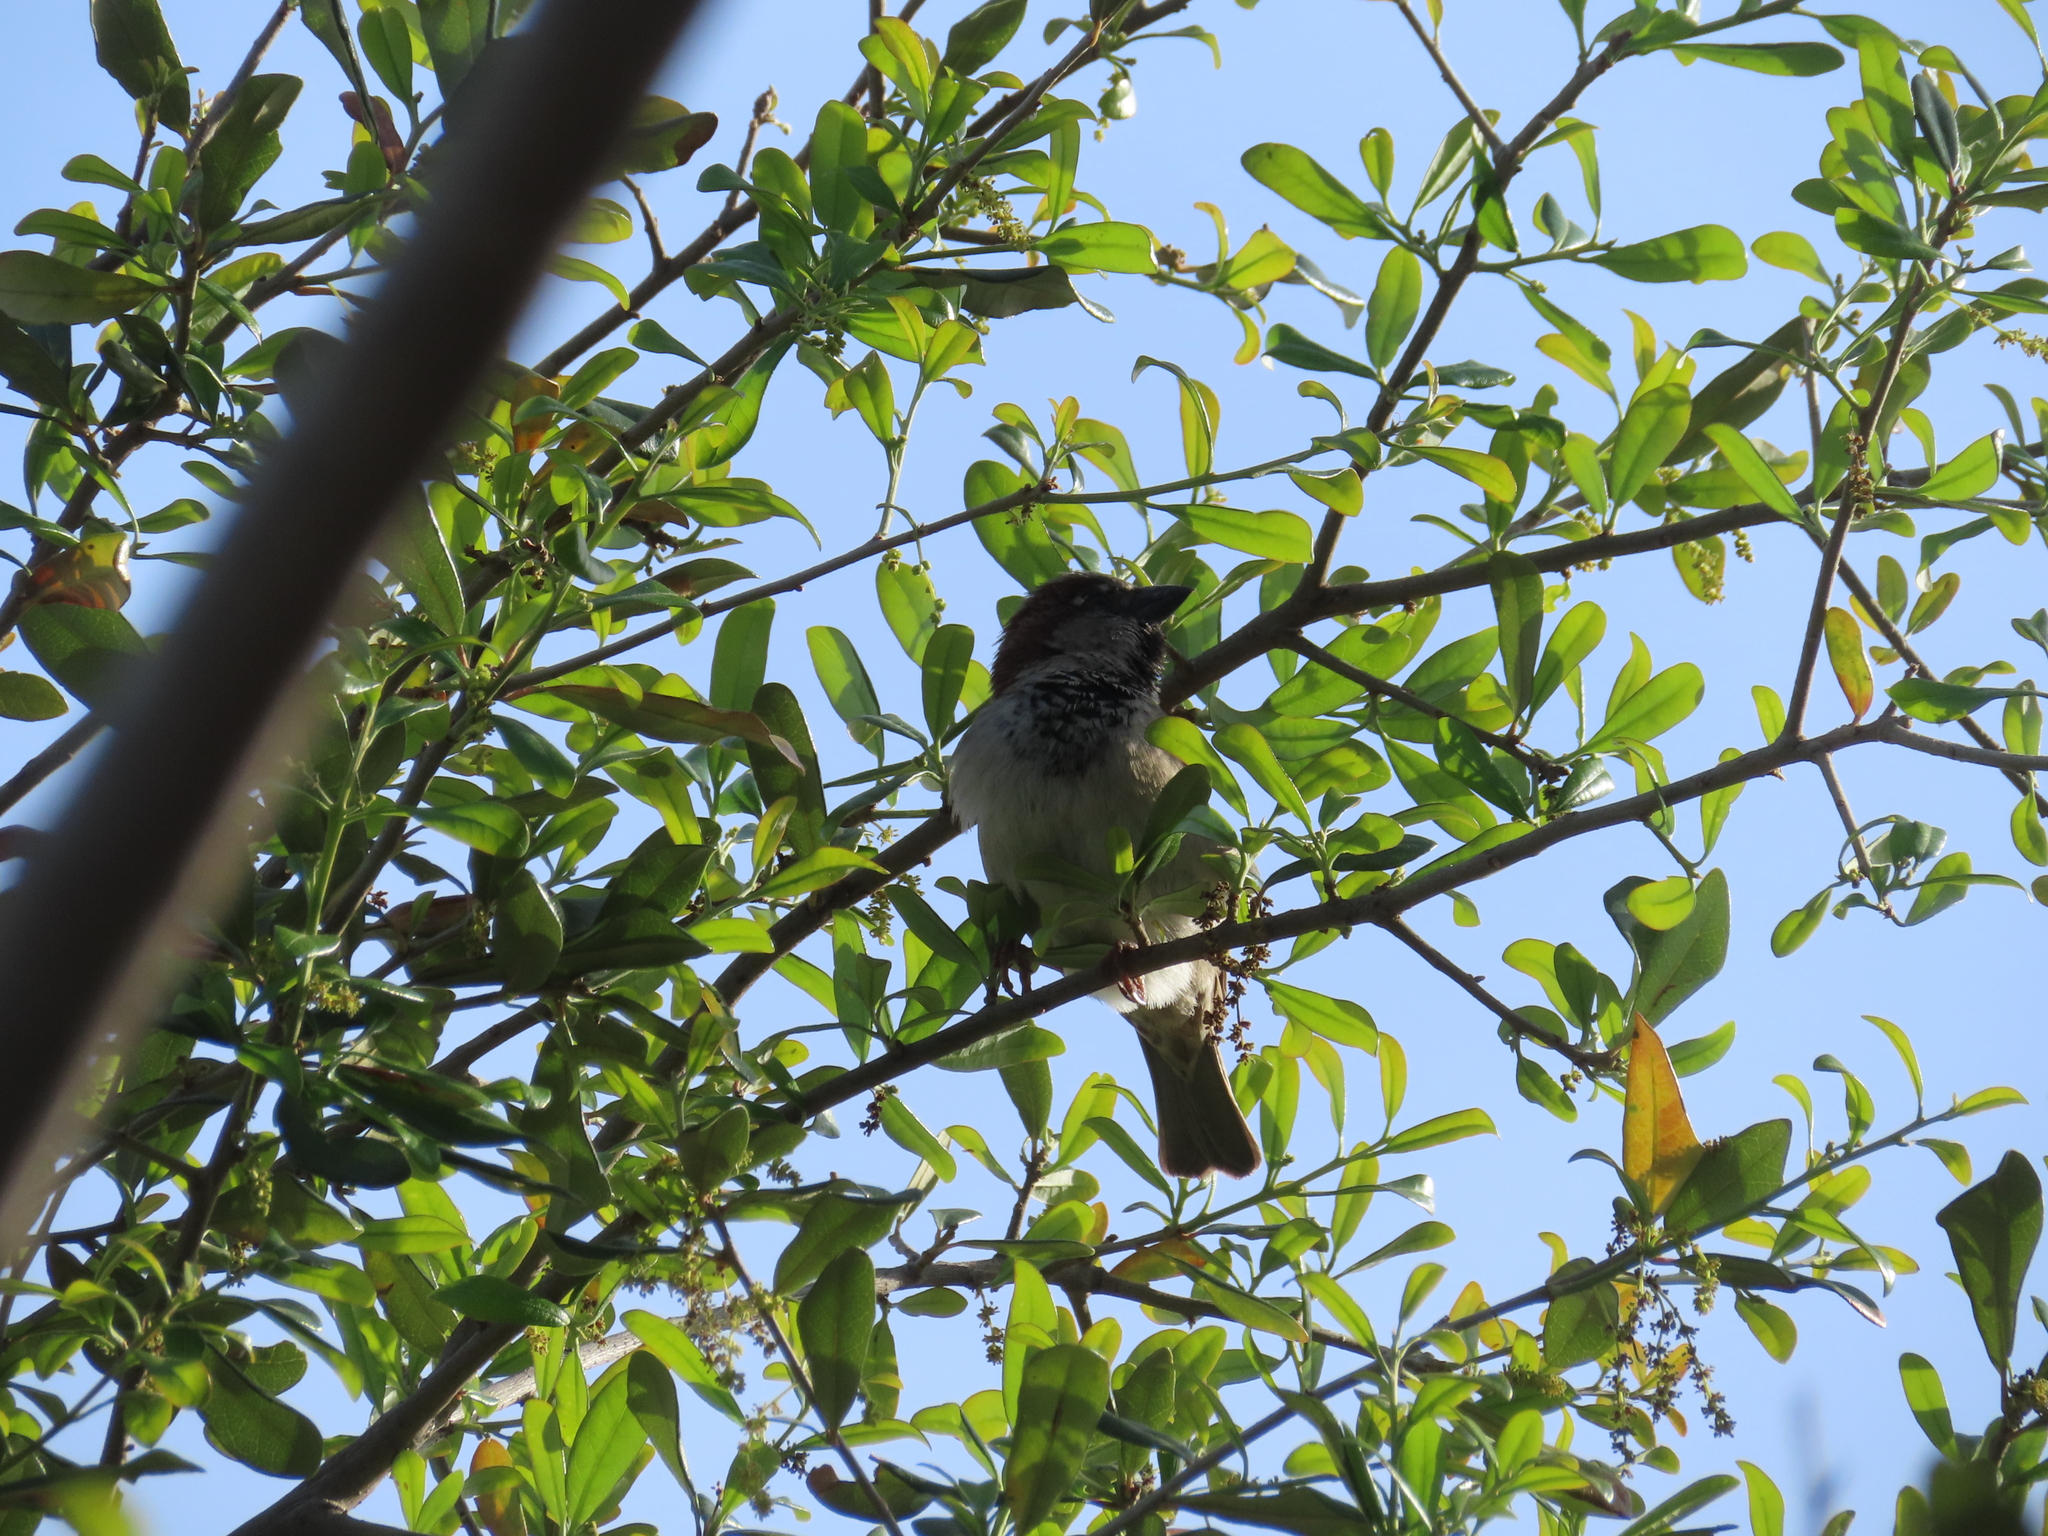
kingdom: Animalia
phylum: Chordata
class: Aves
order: Passeriformes
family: Passeridae
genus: Passer
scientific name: Passer domesticus
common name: House sparrow
